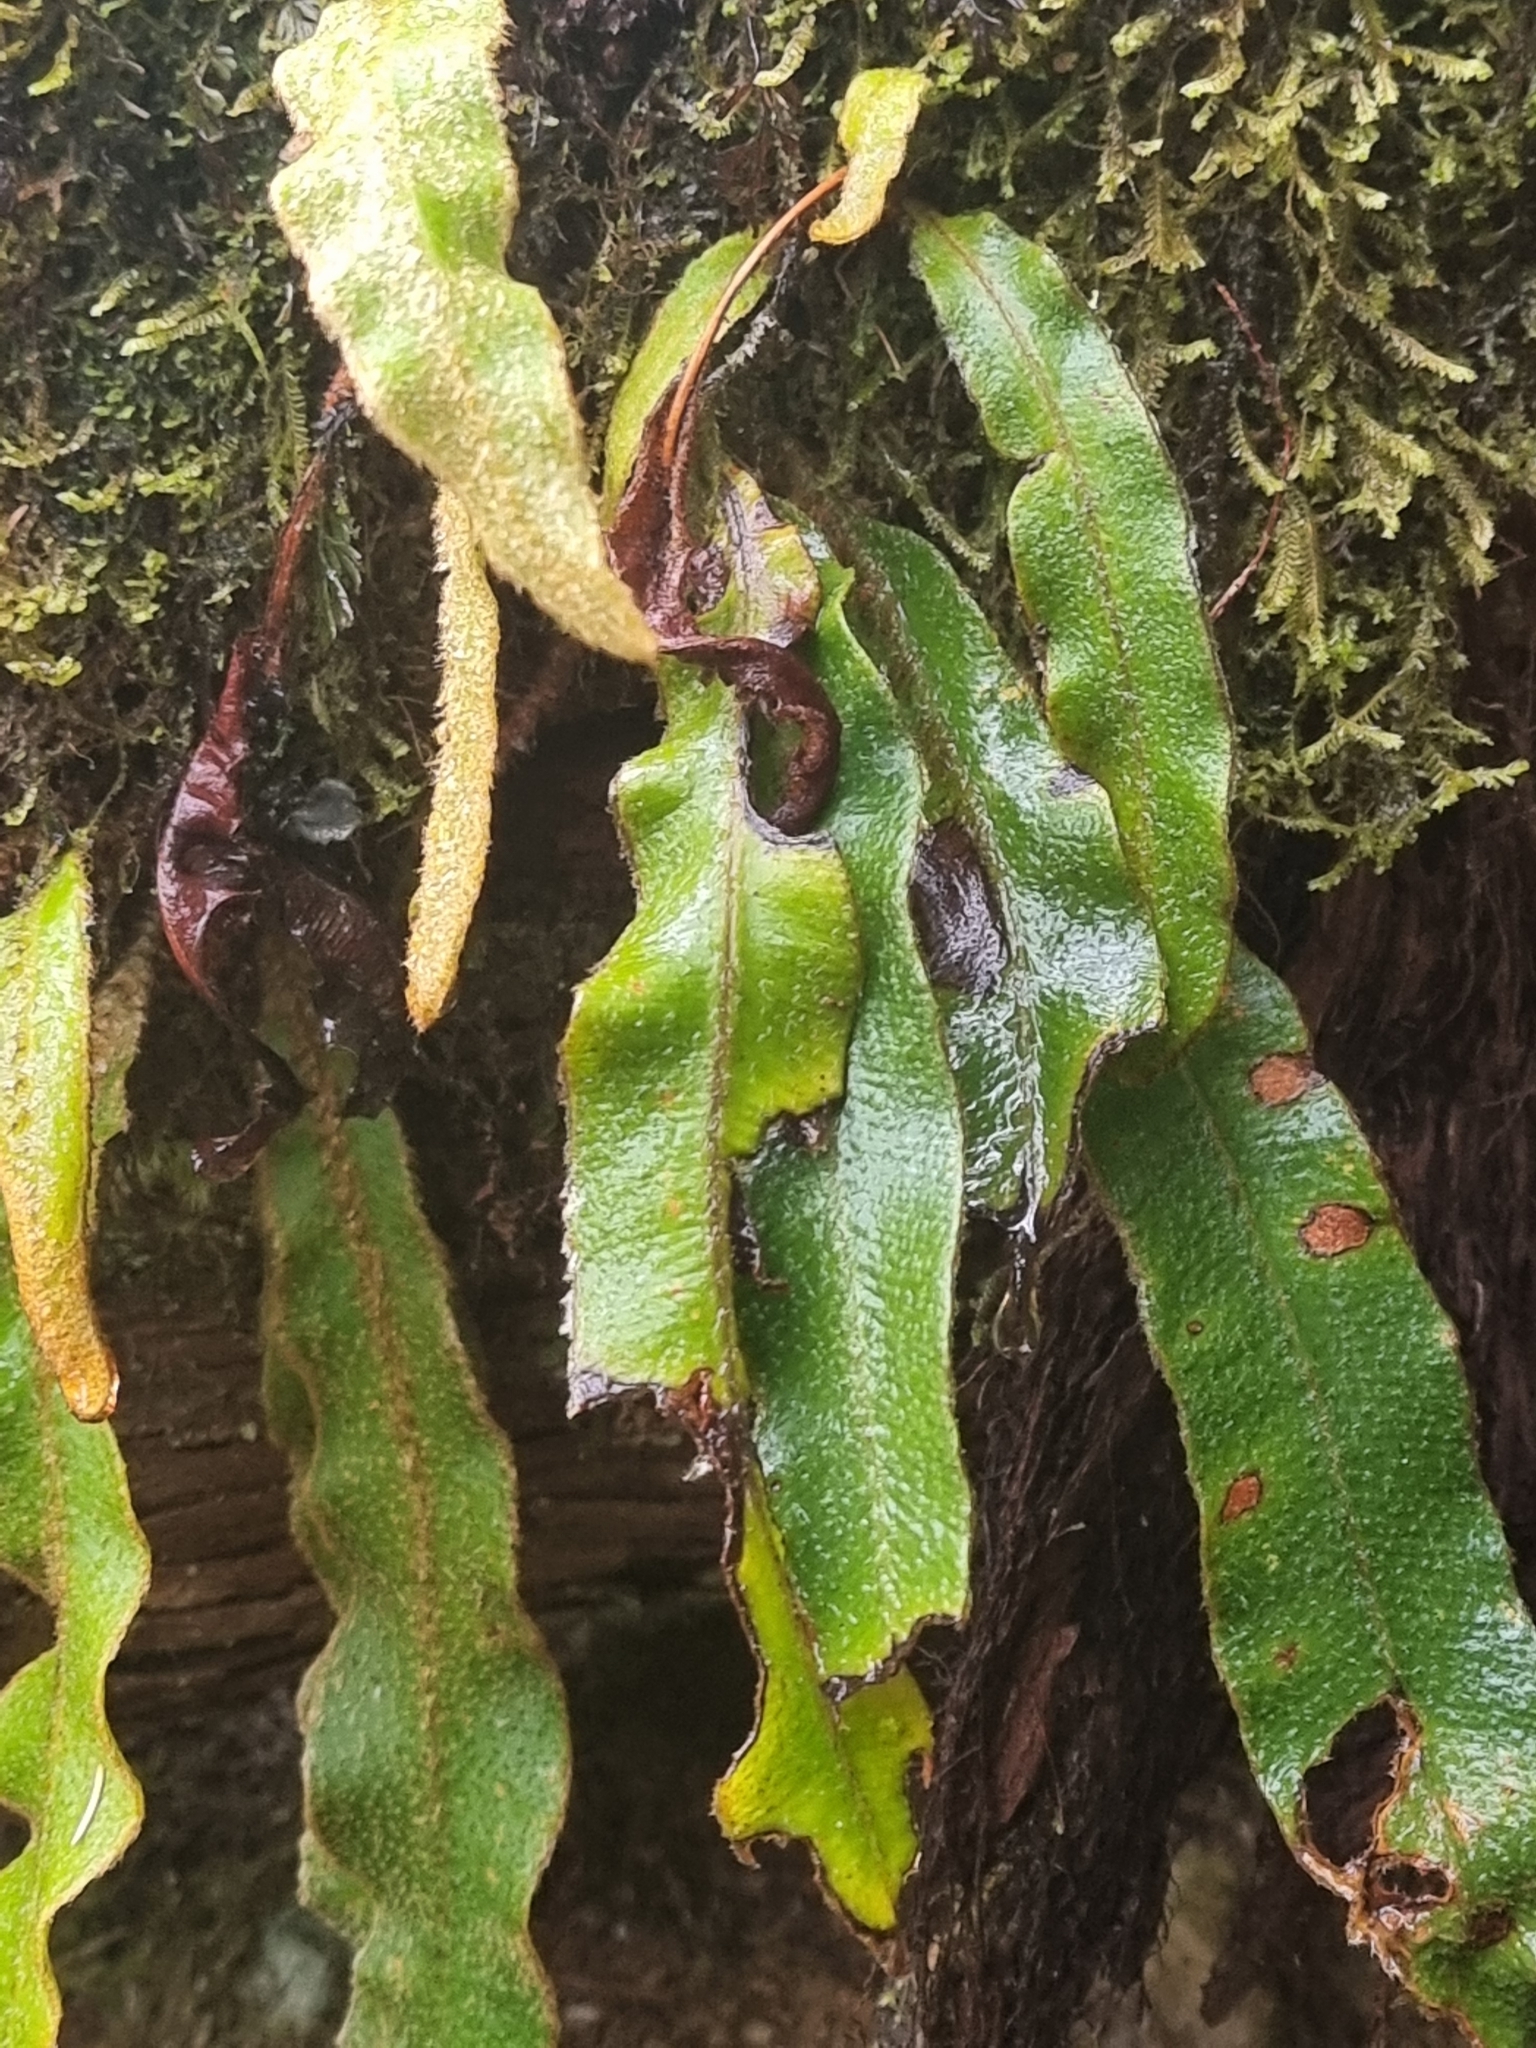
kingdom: Plantae
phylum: Tracheophyta
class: Polypodiopsida
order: Polypodiales
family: Dryopteridaceae
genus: Elaphoglossum
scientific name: Elaphoglossum semicylindricum
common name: Scaly tongue-fern
